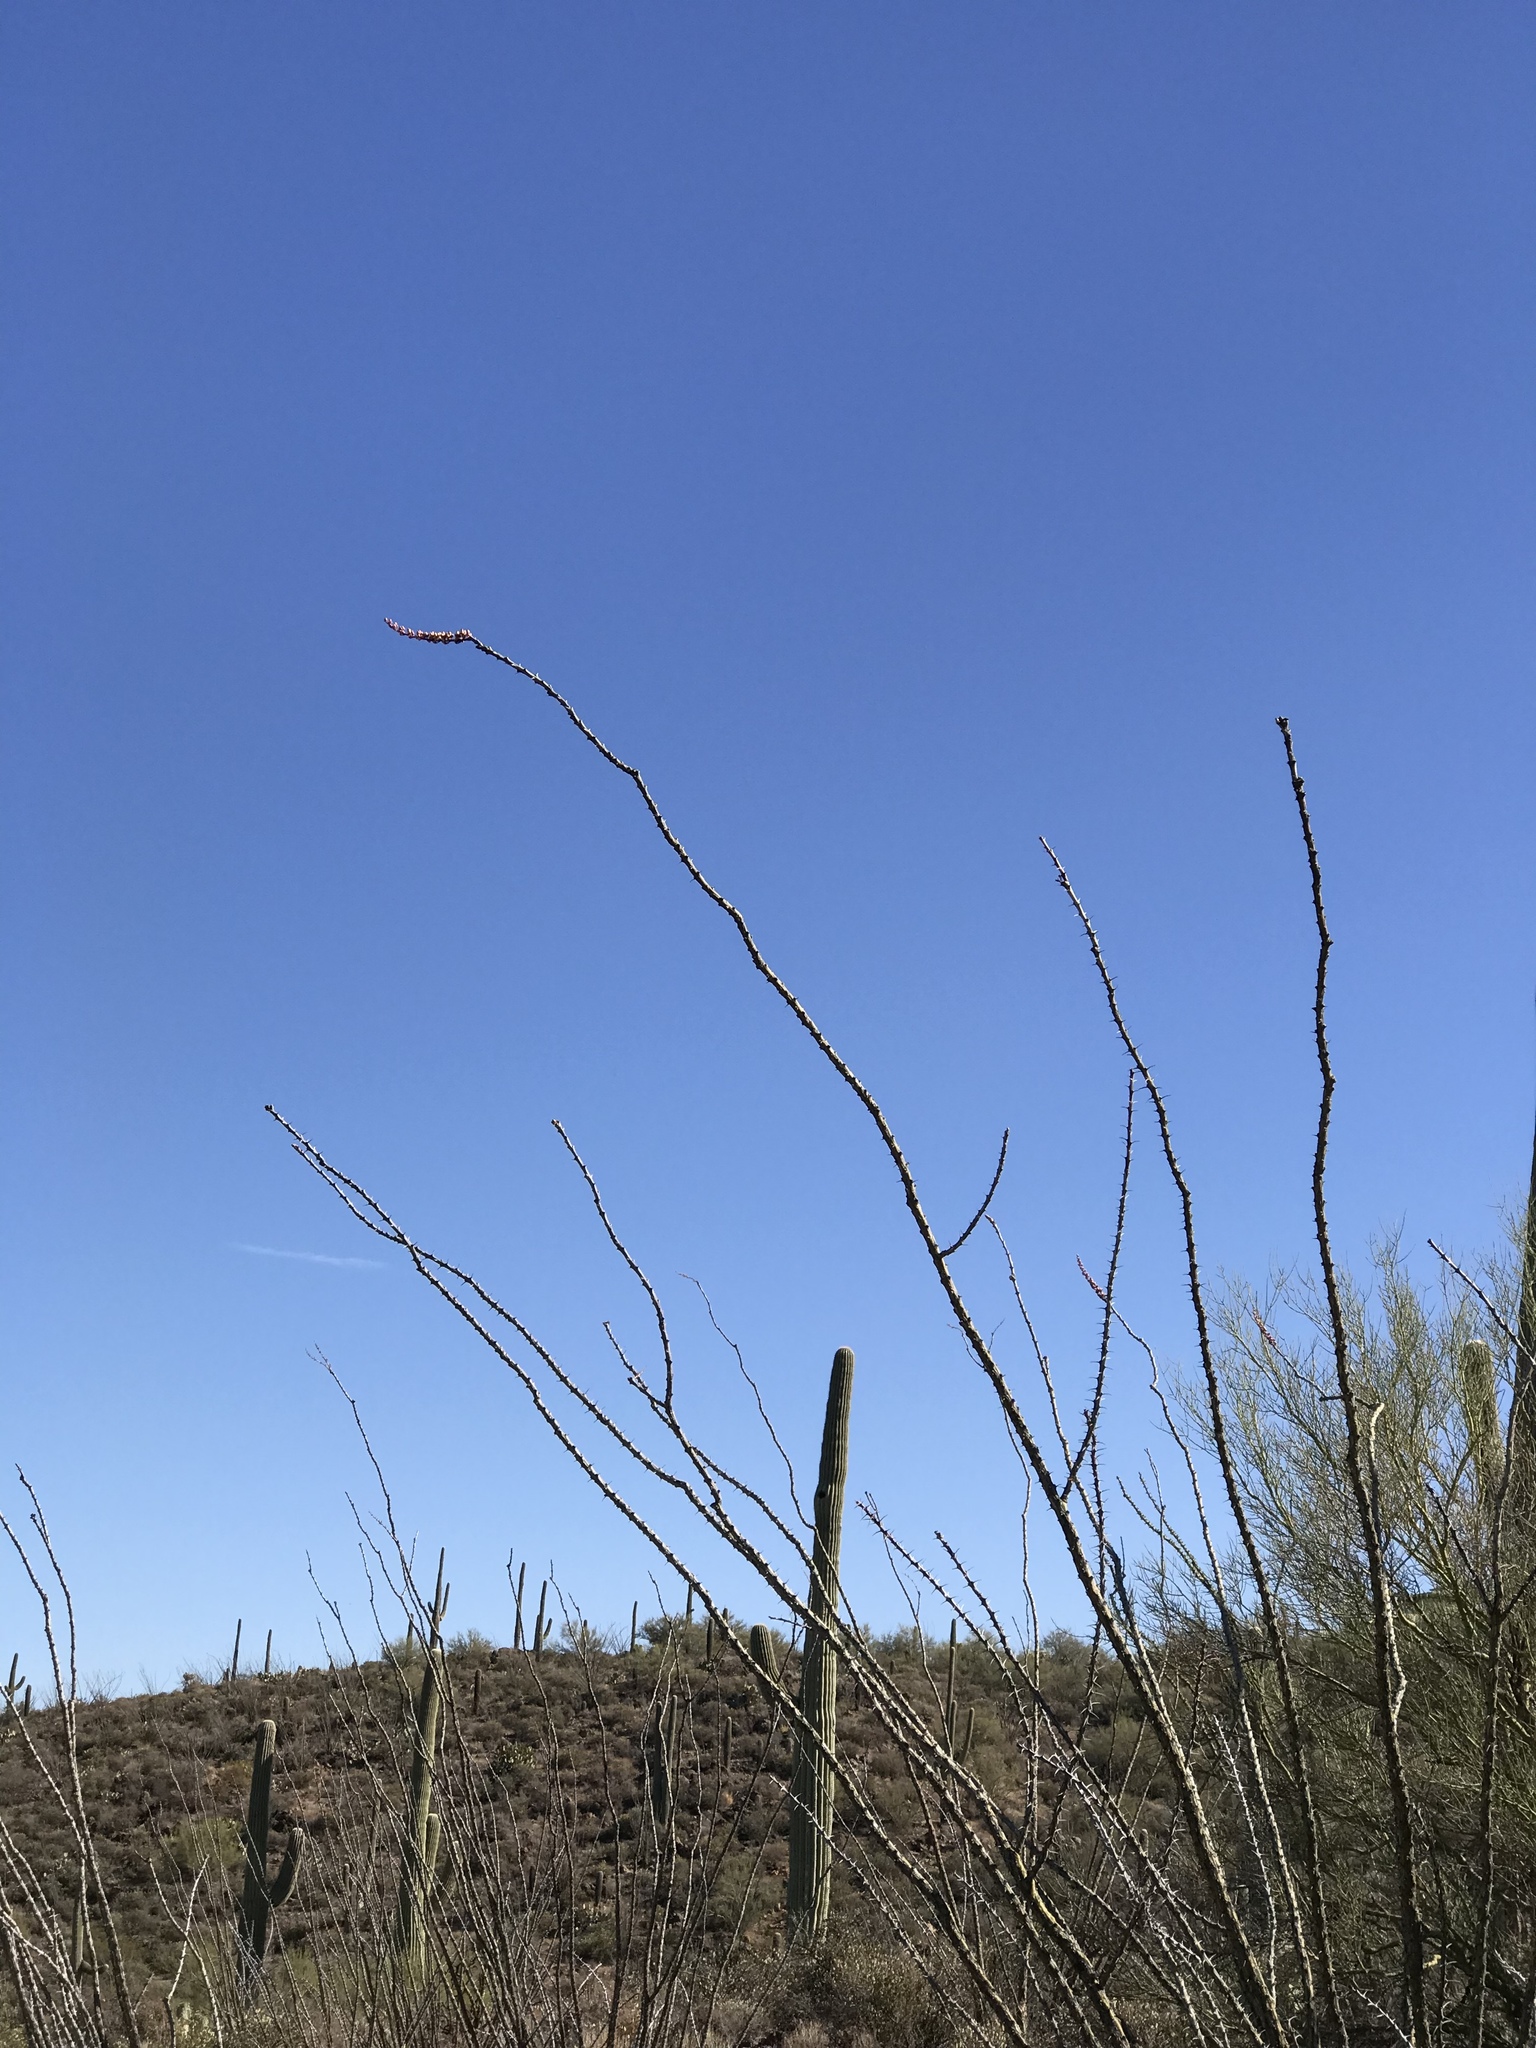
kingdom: Plantae
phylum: Tracheophyta
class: Magnoliopsida
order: Ericales
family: Fouquieriaceae
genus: Fouquieria
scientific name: Fouquieria splendens
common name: Vine-cactus
